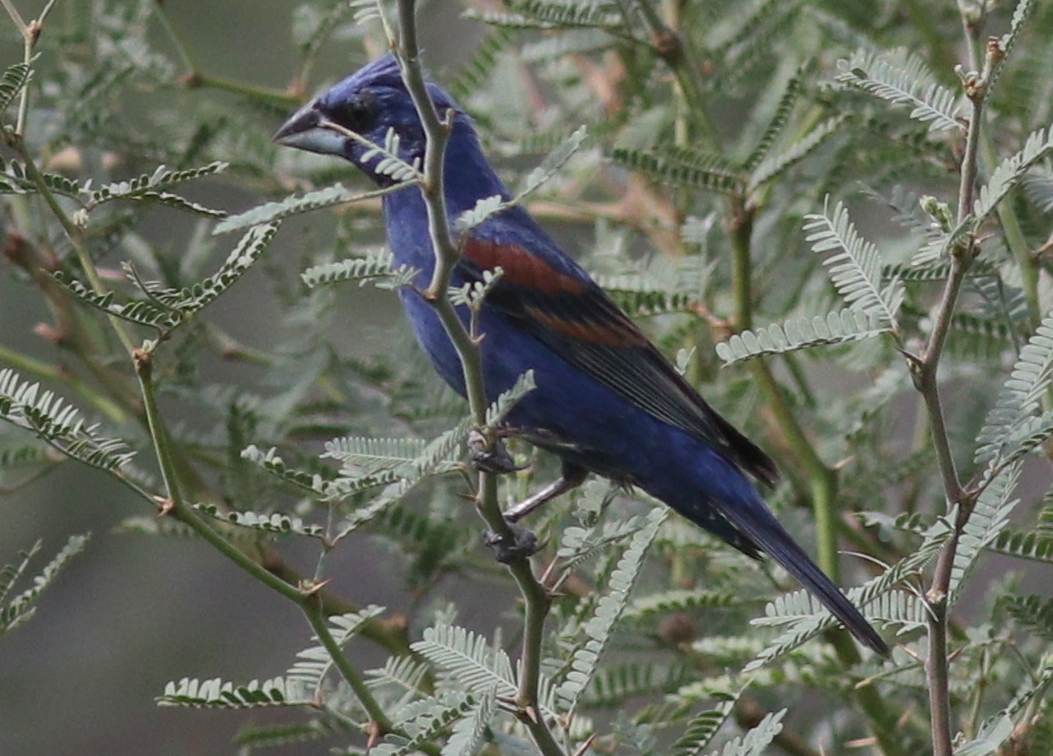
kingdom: Animalia
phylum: Chordata
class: Aves
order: Passeriformes
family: Cardinalidae
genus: Passerina
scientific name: Passerina caerulea
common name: Blue grosbeak
